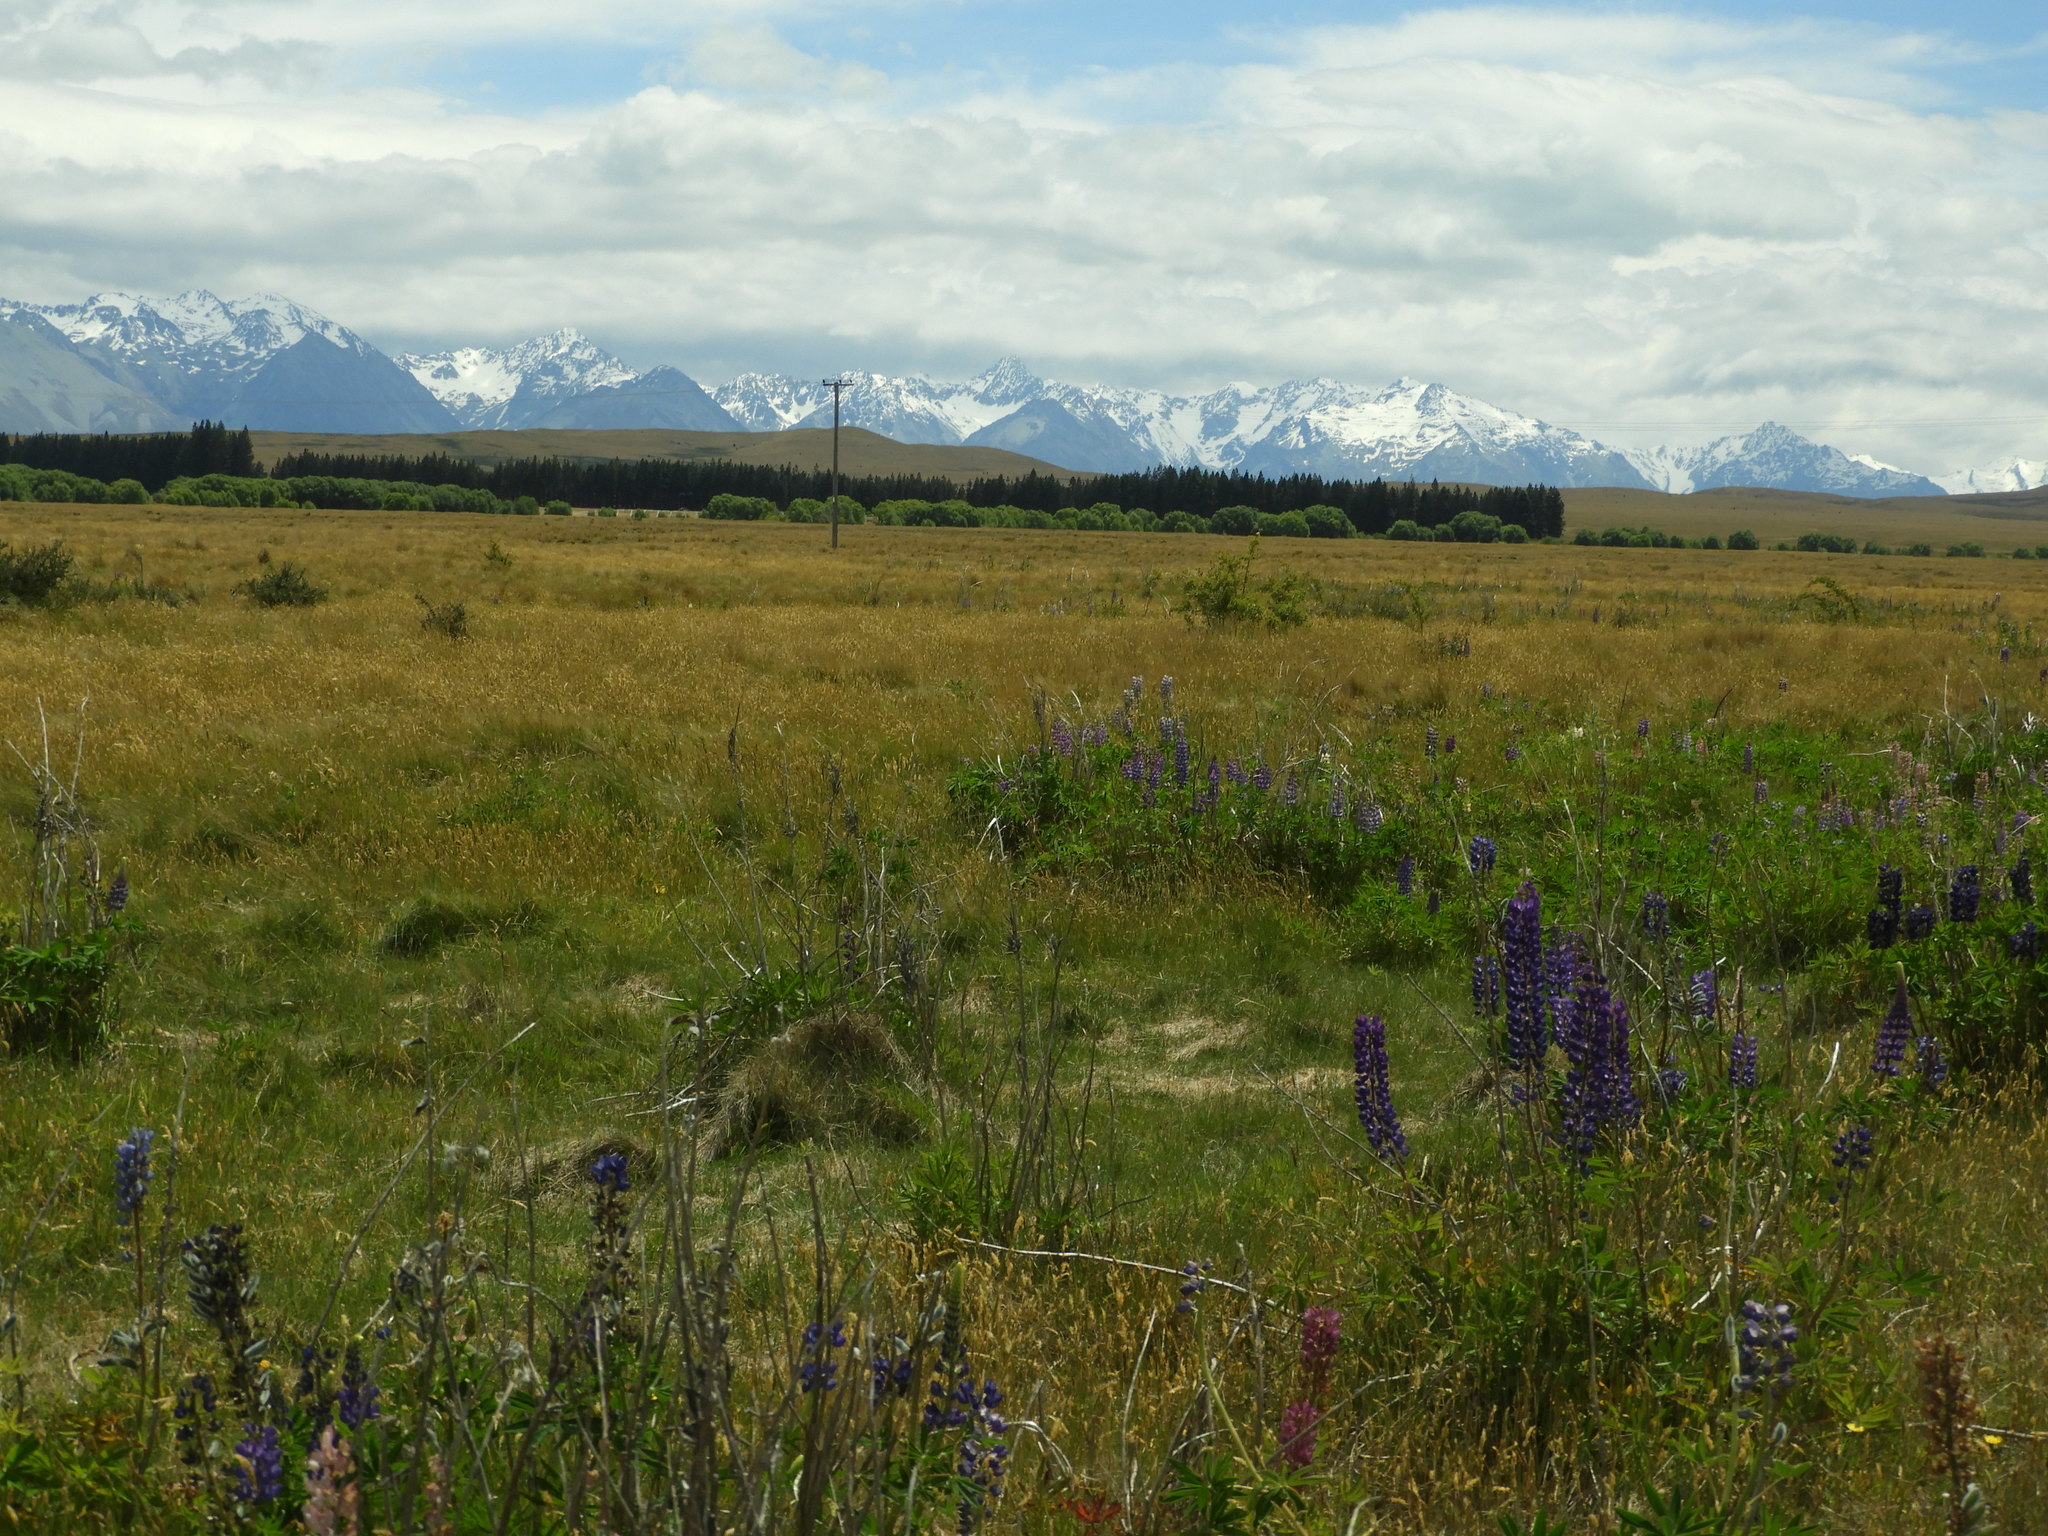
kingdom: Plantae
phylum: Tracheophyta
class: Magnoliopsida
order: Fabales
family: Fabaceae
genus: Lupinus
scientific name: Lupinus polyphyllus
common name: Garden lupin
